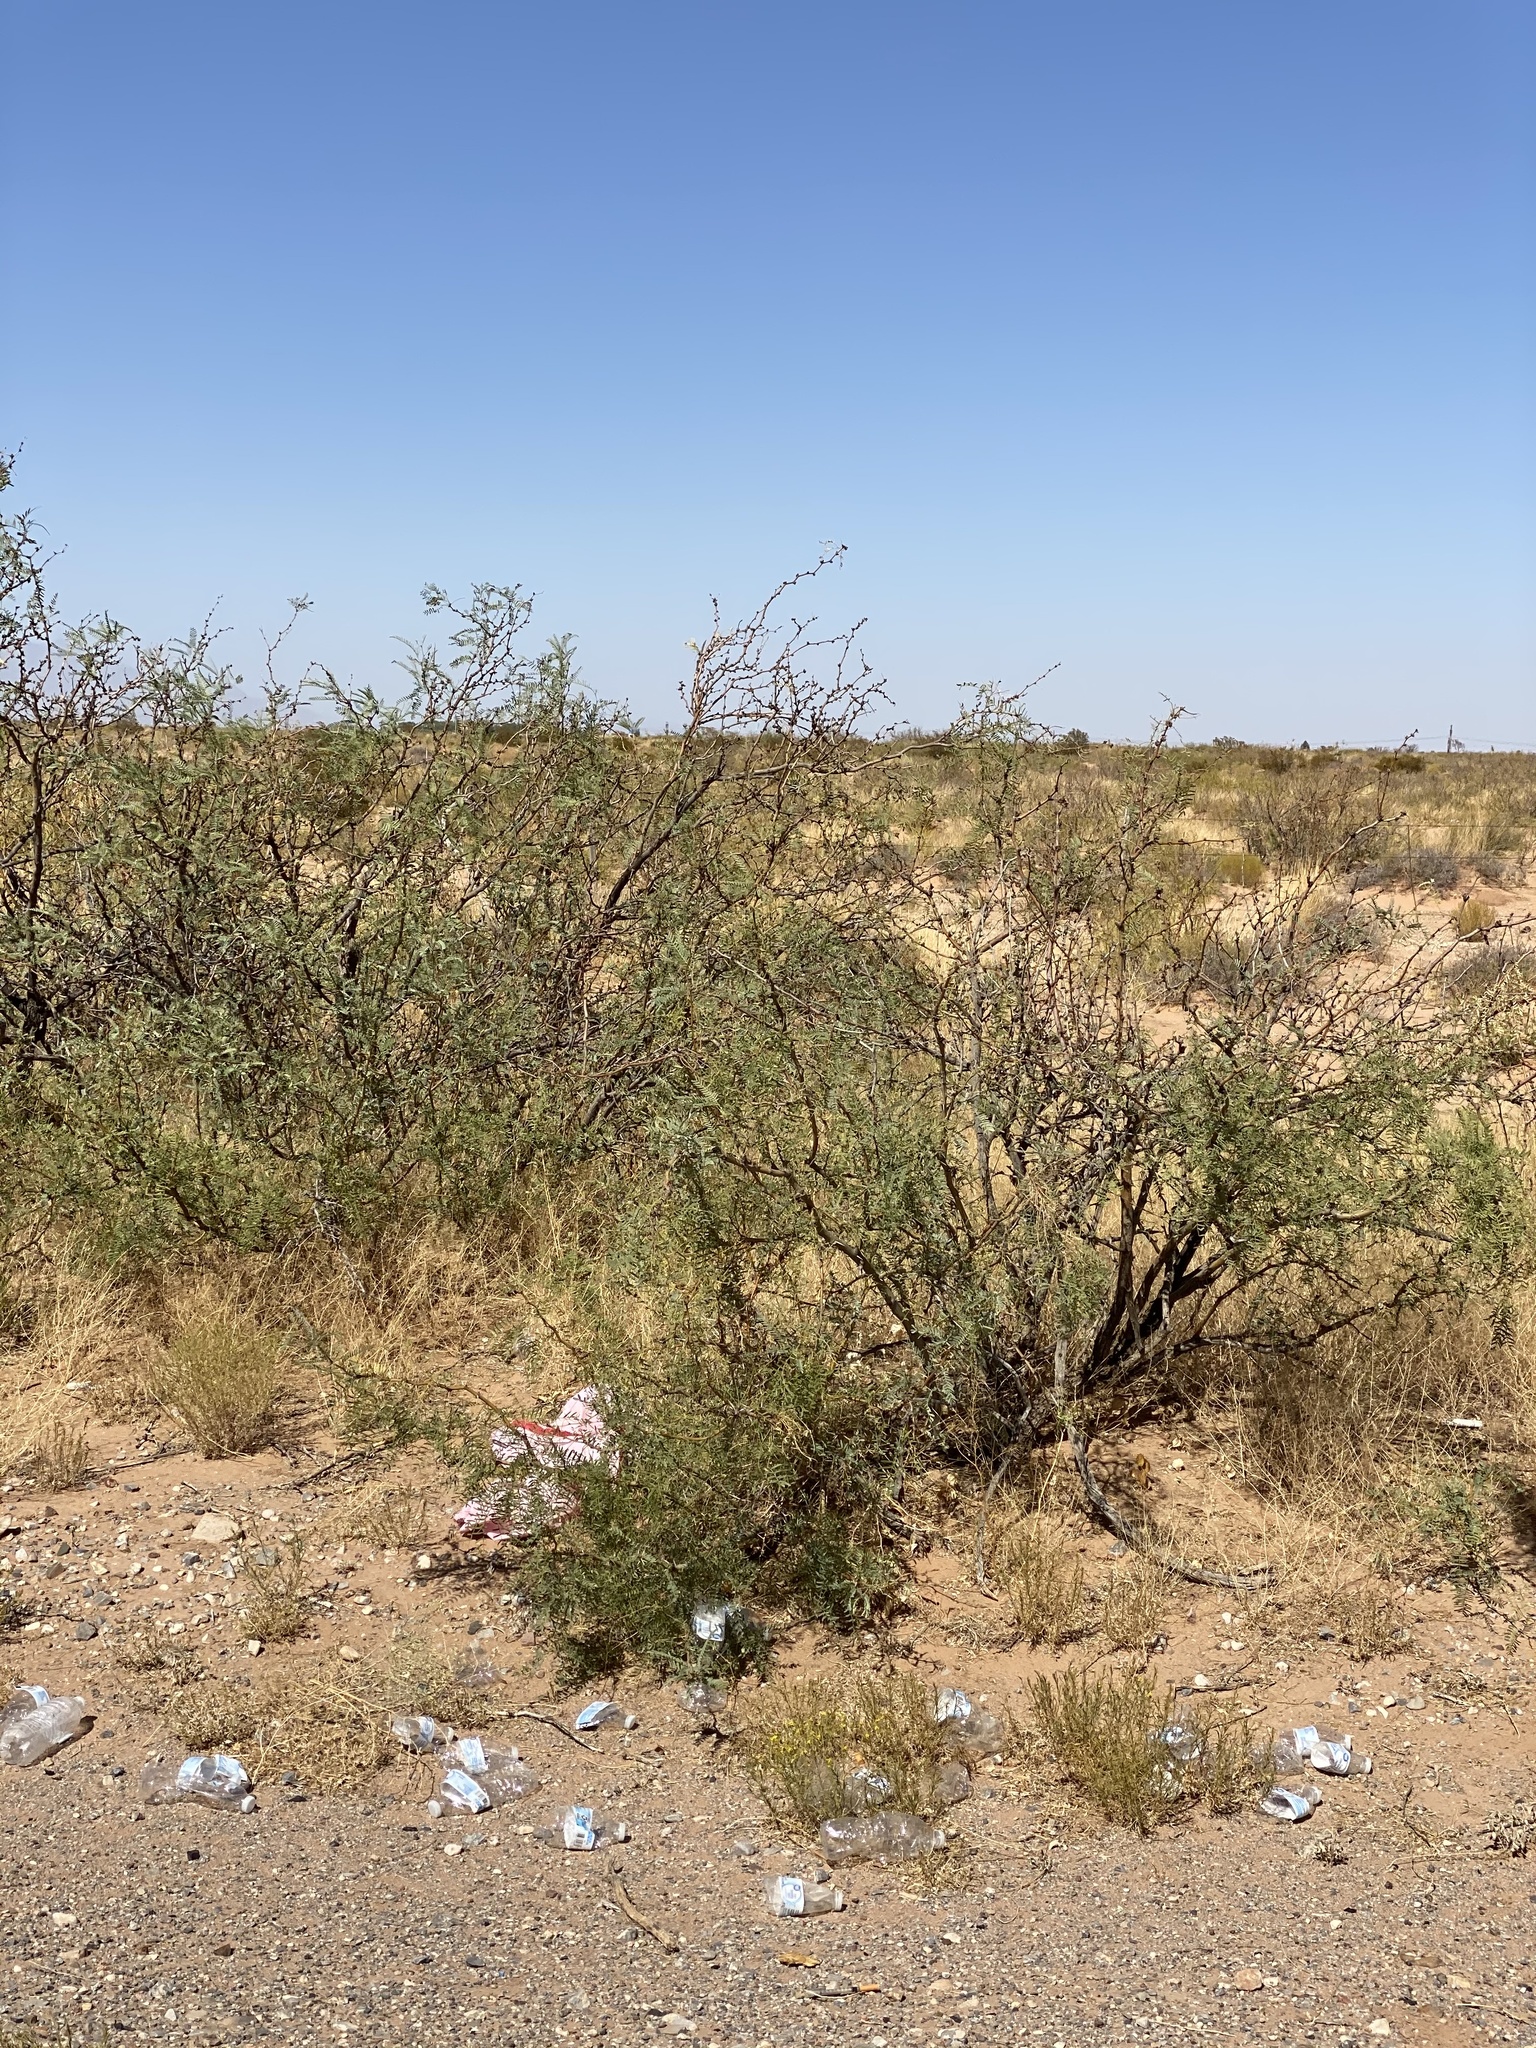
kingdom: Plantae
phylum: Tracheophyta
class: Magnoliopsida
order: Fabales
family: Fabaceae
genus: Prosopis
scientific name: Prosopis glandulosa
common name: Honey mesquite
